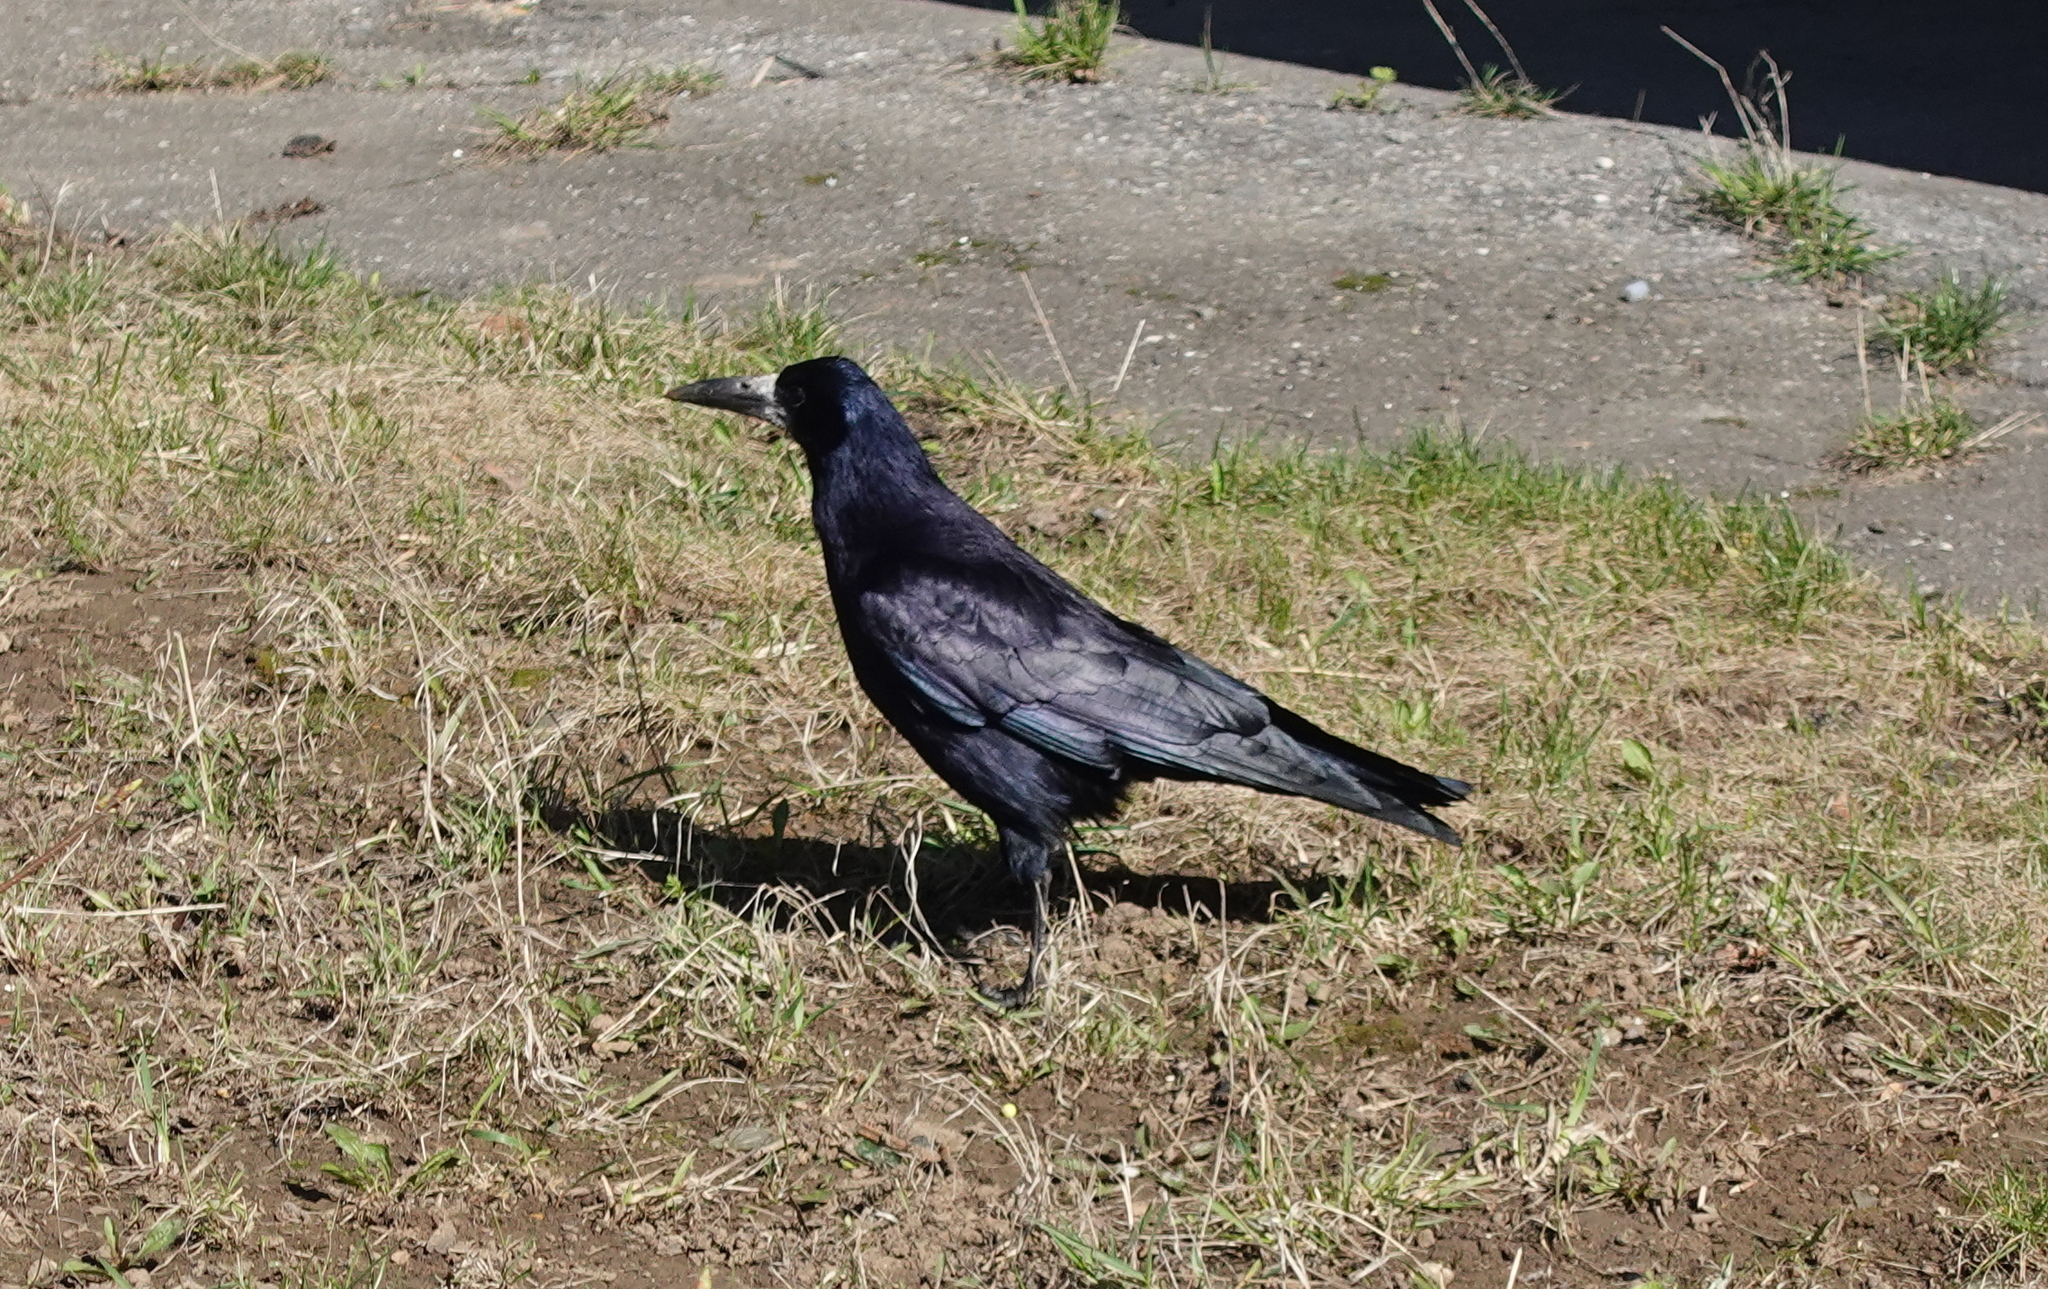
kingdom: Animalia
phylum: Chordata
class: Aves
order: Passeriformes
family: Corvidae
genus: Corvus
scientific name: Corvus frugilegus
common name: Rook
